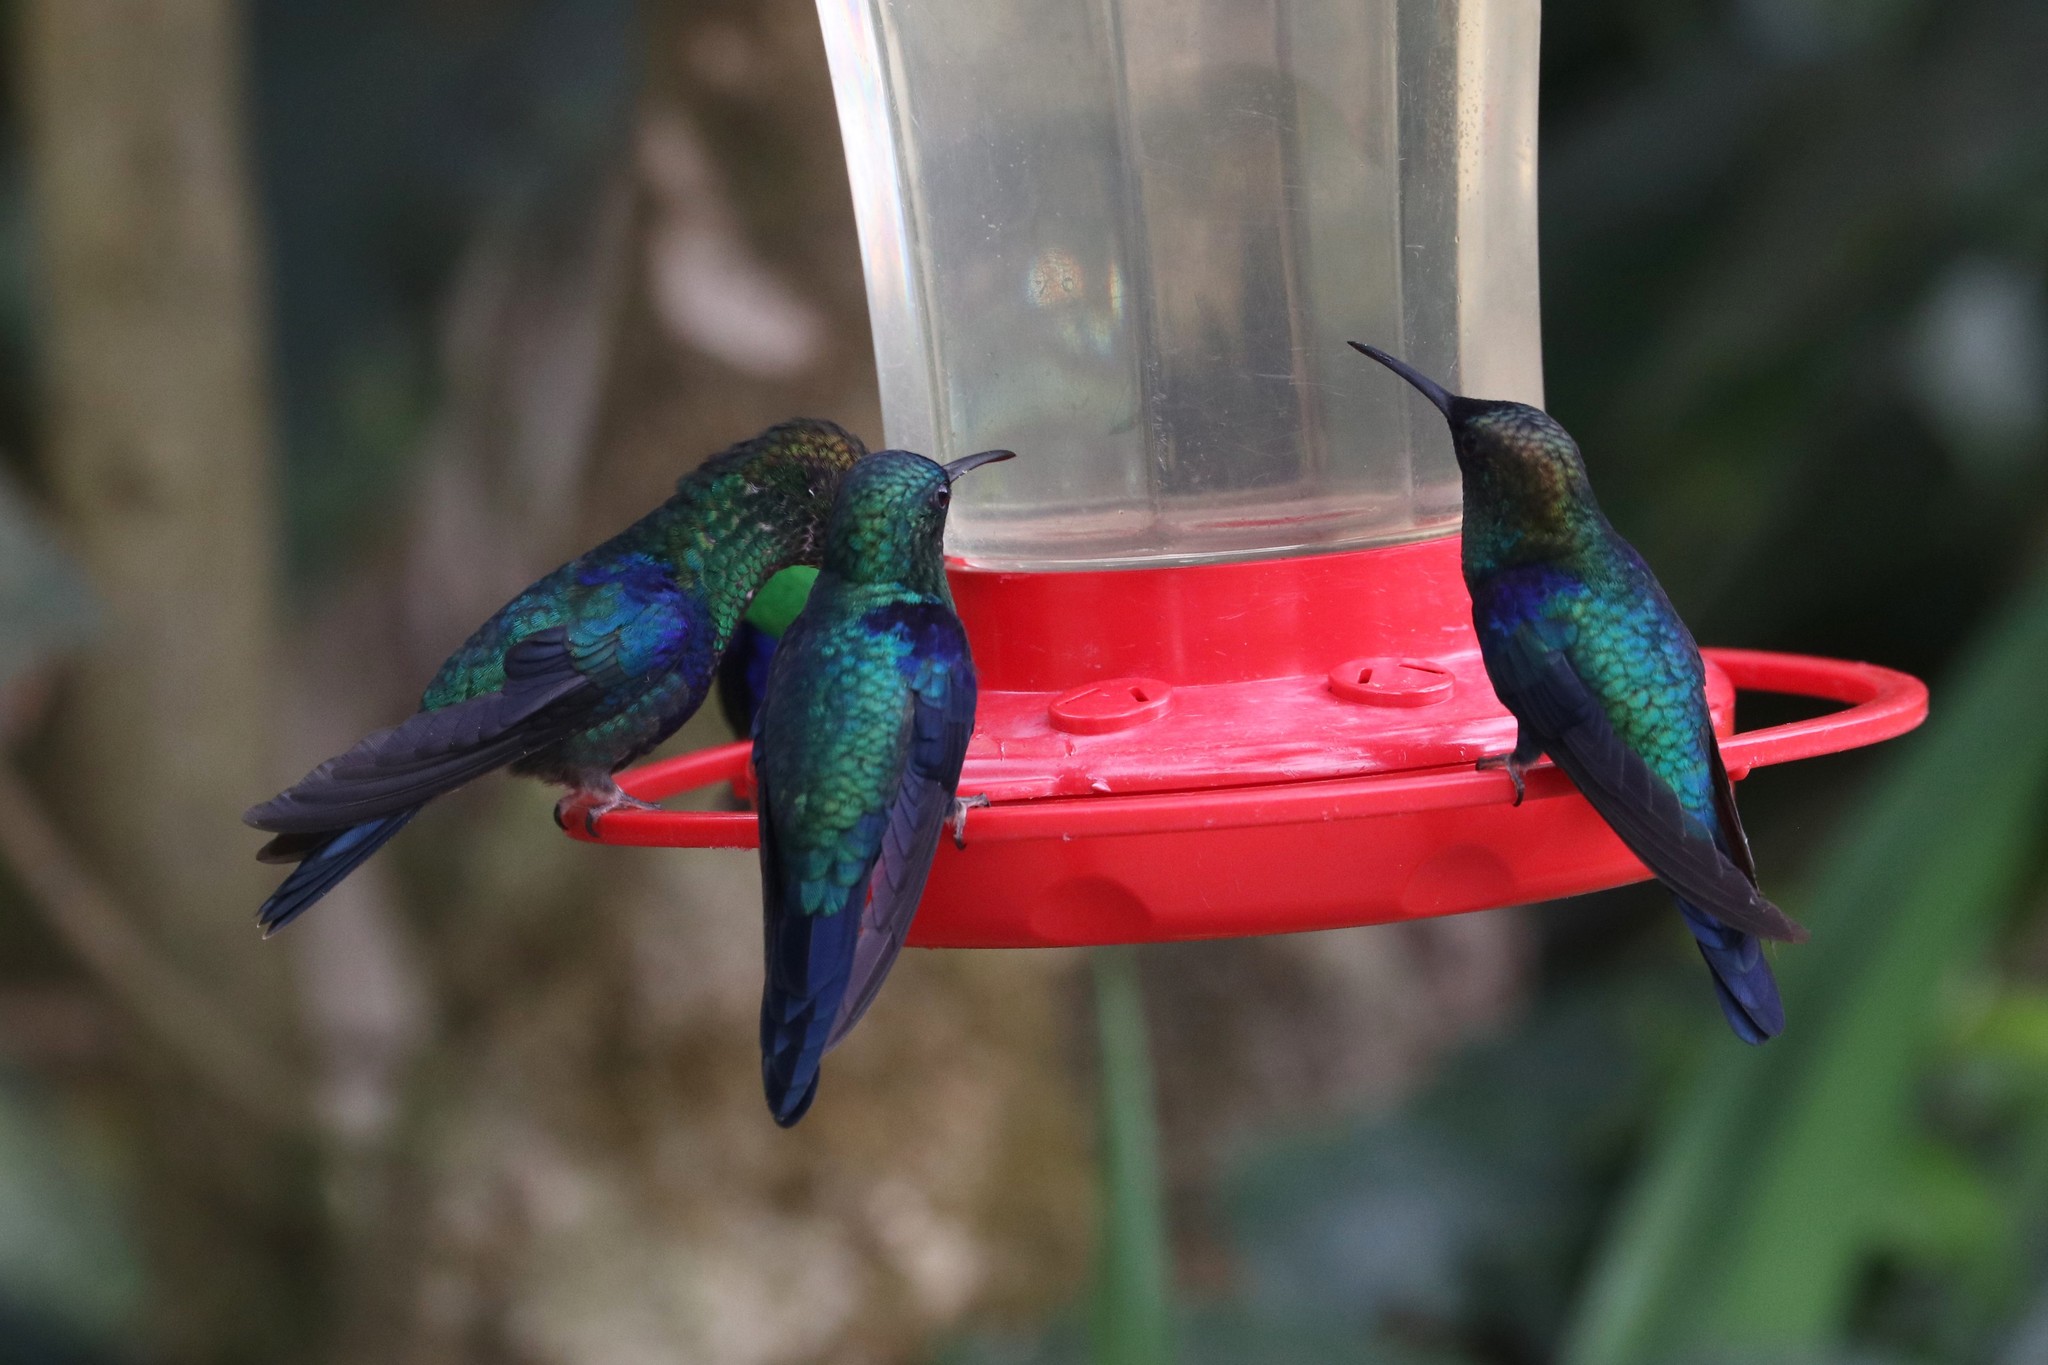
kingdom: Animalia
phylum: Chordata
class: Aves
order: Apodiformes
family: Trochilidae
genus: Thalurania
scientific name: Thalurania colombica
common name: Crowned woodnymph
